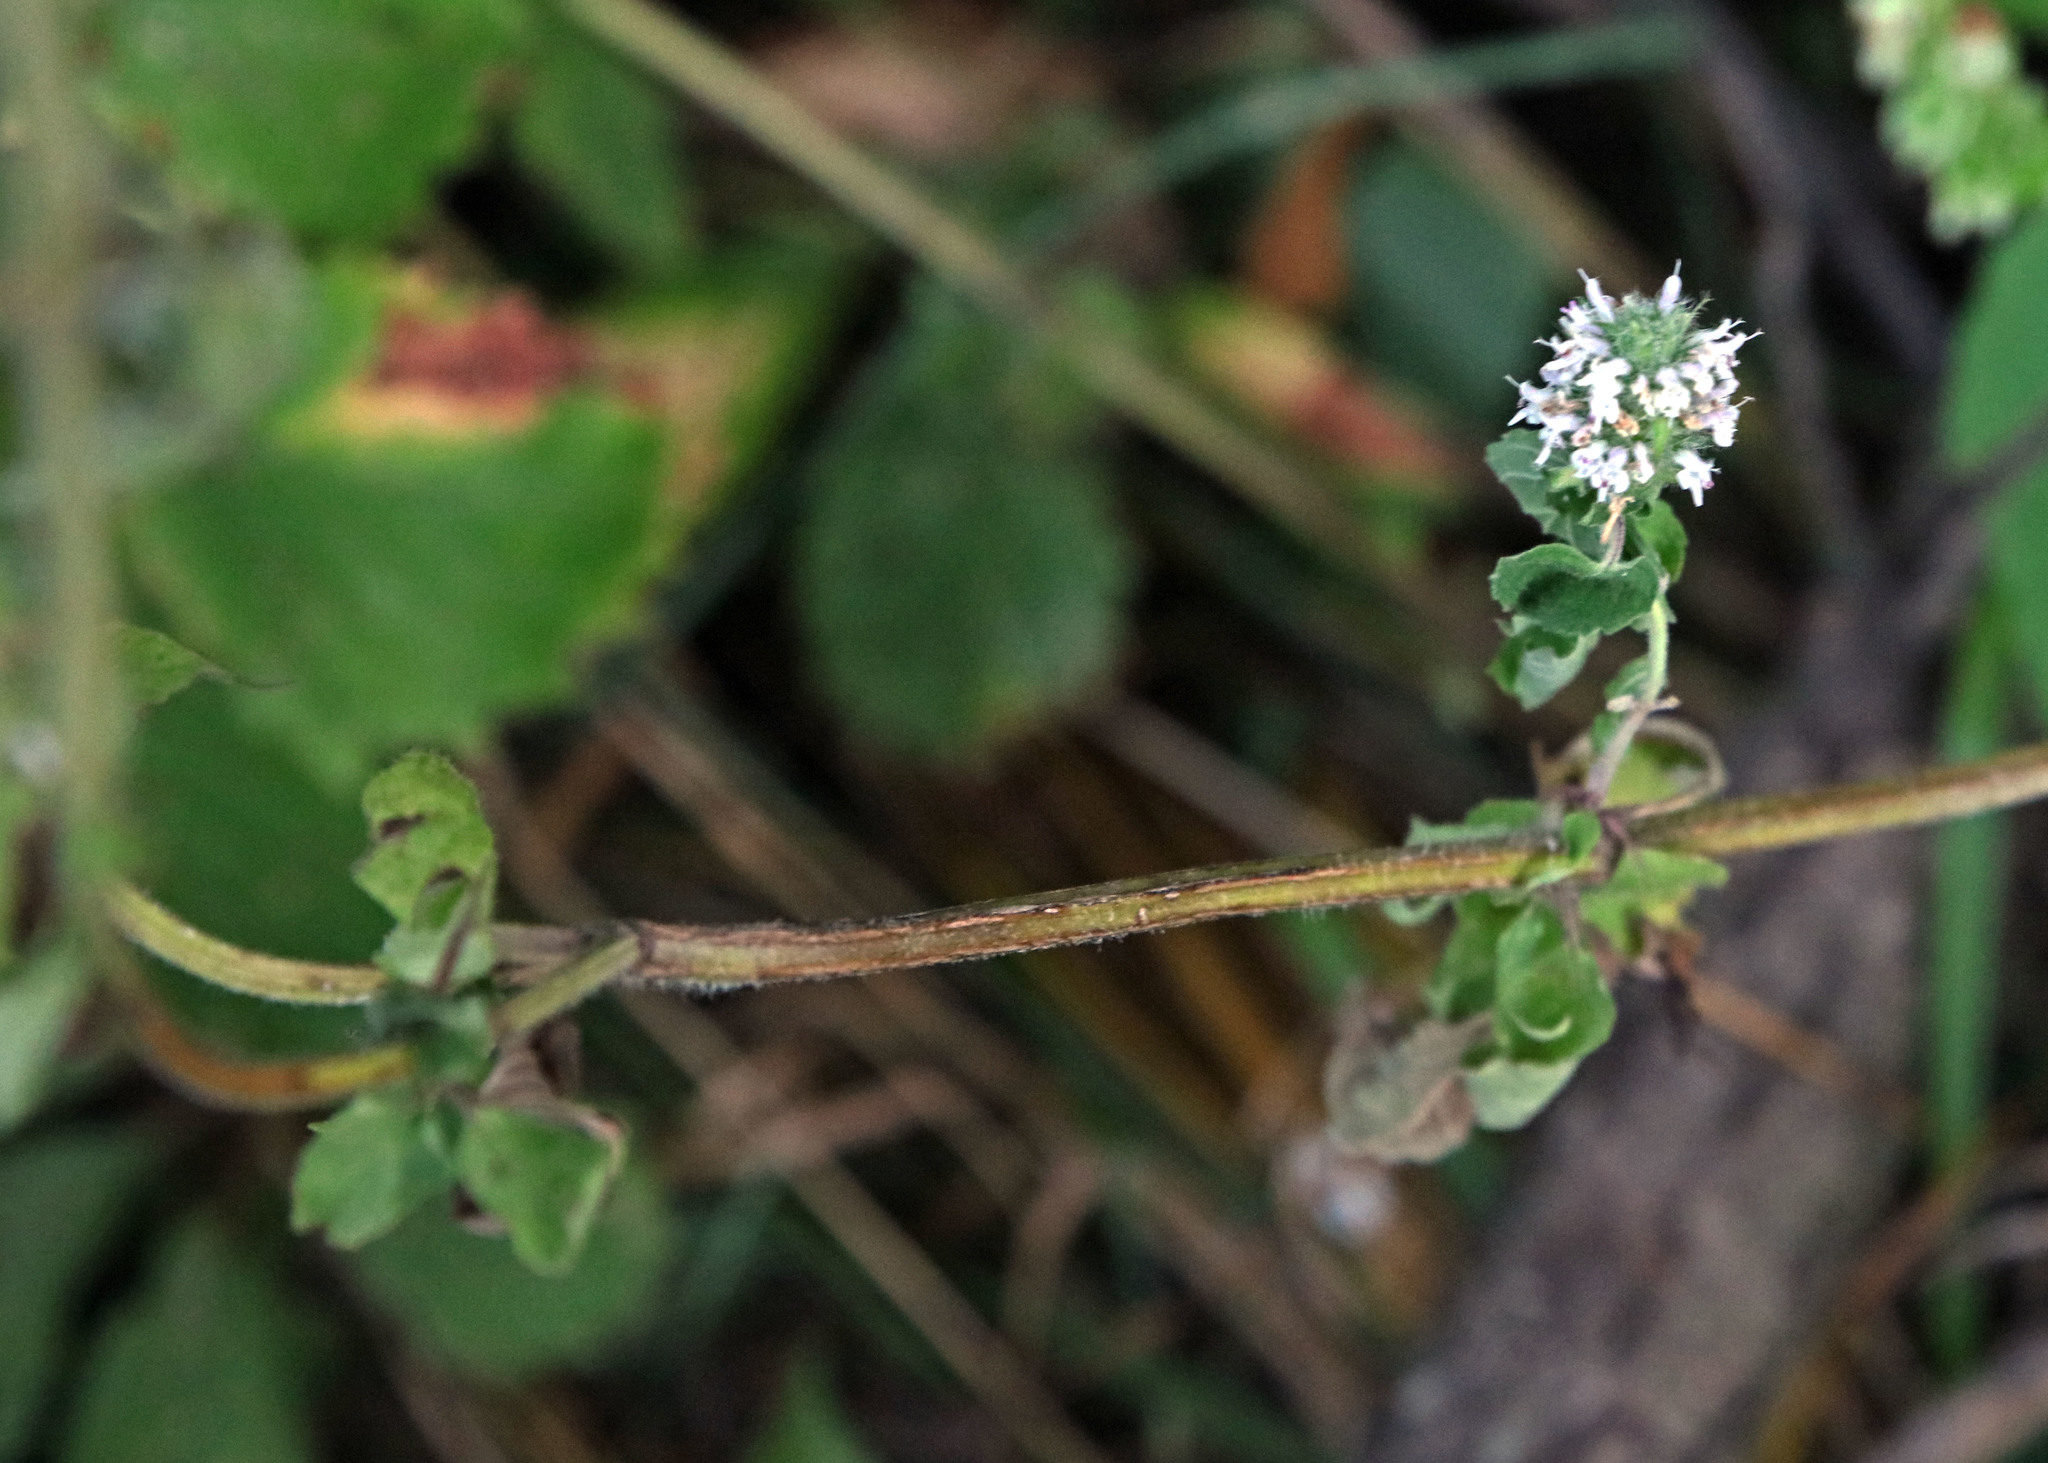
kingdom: Plantae
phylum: Tracheophyta
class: Magnoliopsida
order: Lamiales
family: Lamiaceae
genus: Blephilia
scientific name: Blephilia hirsuta
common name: Hairy blephilia
